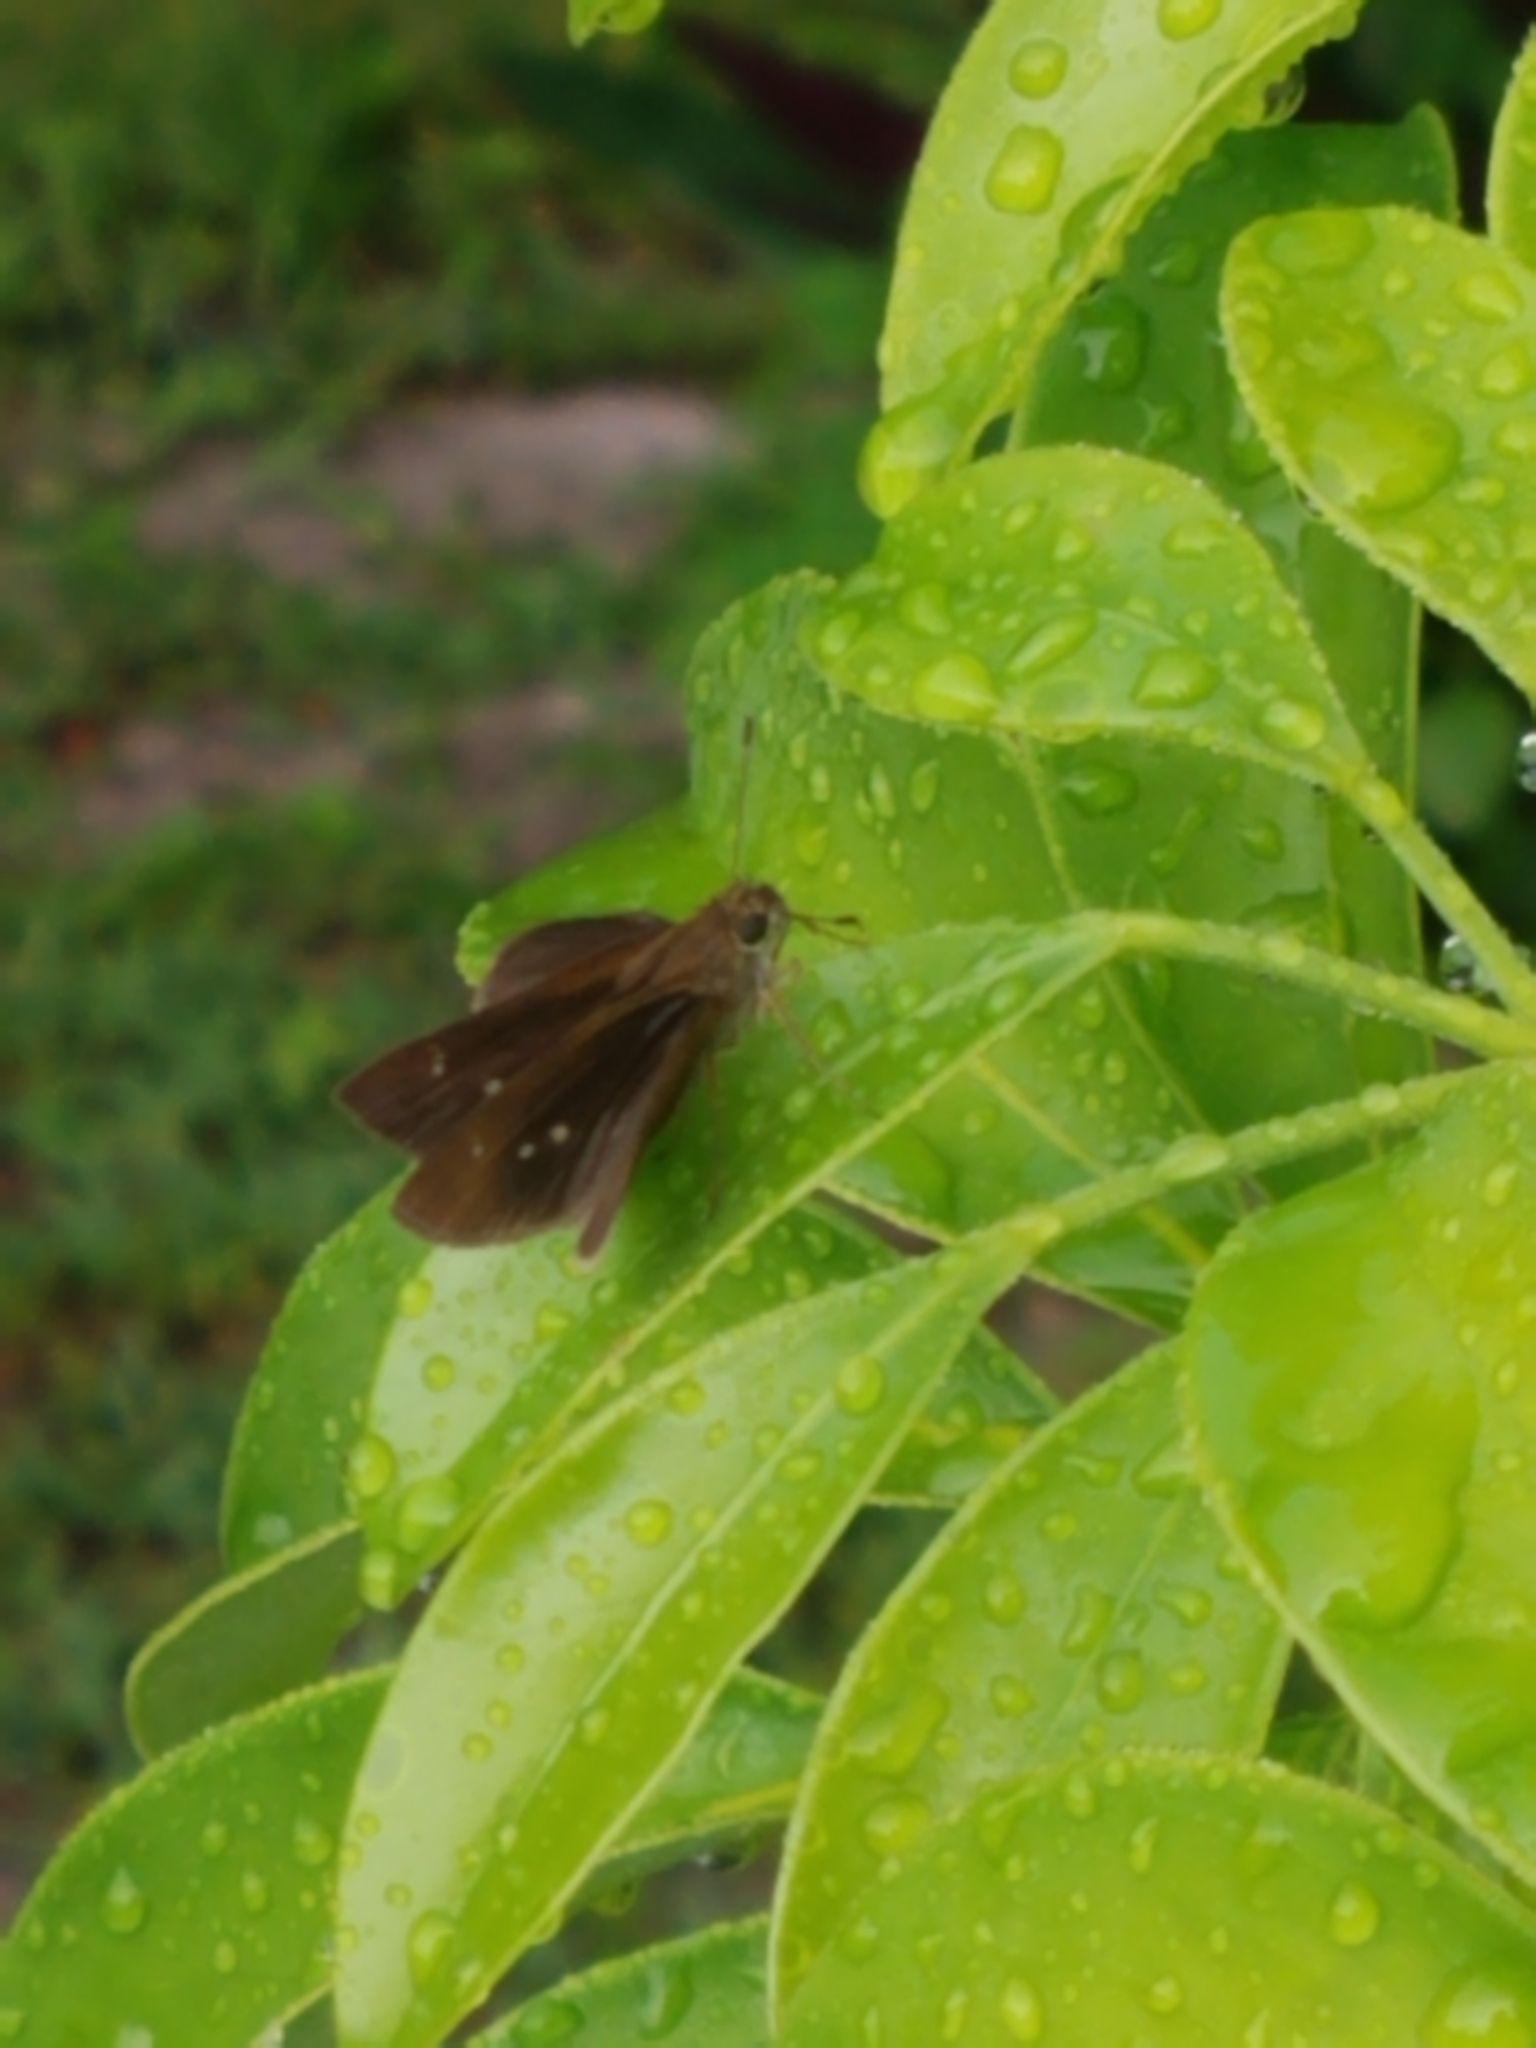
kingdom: Animalia
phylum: Arthropoda
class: Insecta
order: Lepidoptera
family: Hesperiidae
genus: Cymaenes
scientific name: Cymaenes tripunctus
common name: Dingy dotted skipper
